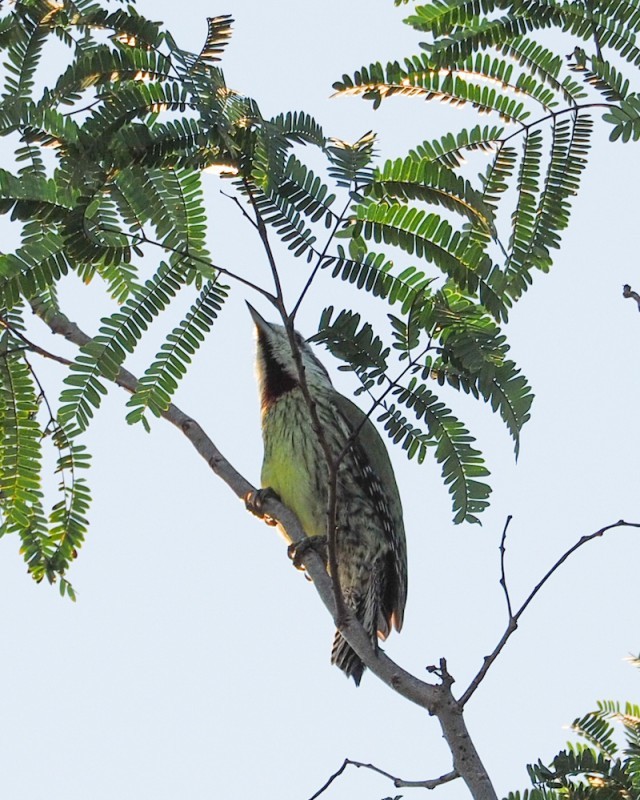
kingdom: Animalia
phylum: Chordata
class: Aves
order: Piciformes
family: Picidae
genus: Xiphidiopicus
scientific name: Xiphidiopicus percussus
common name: Cuban green woodpecker
